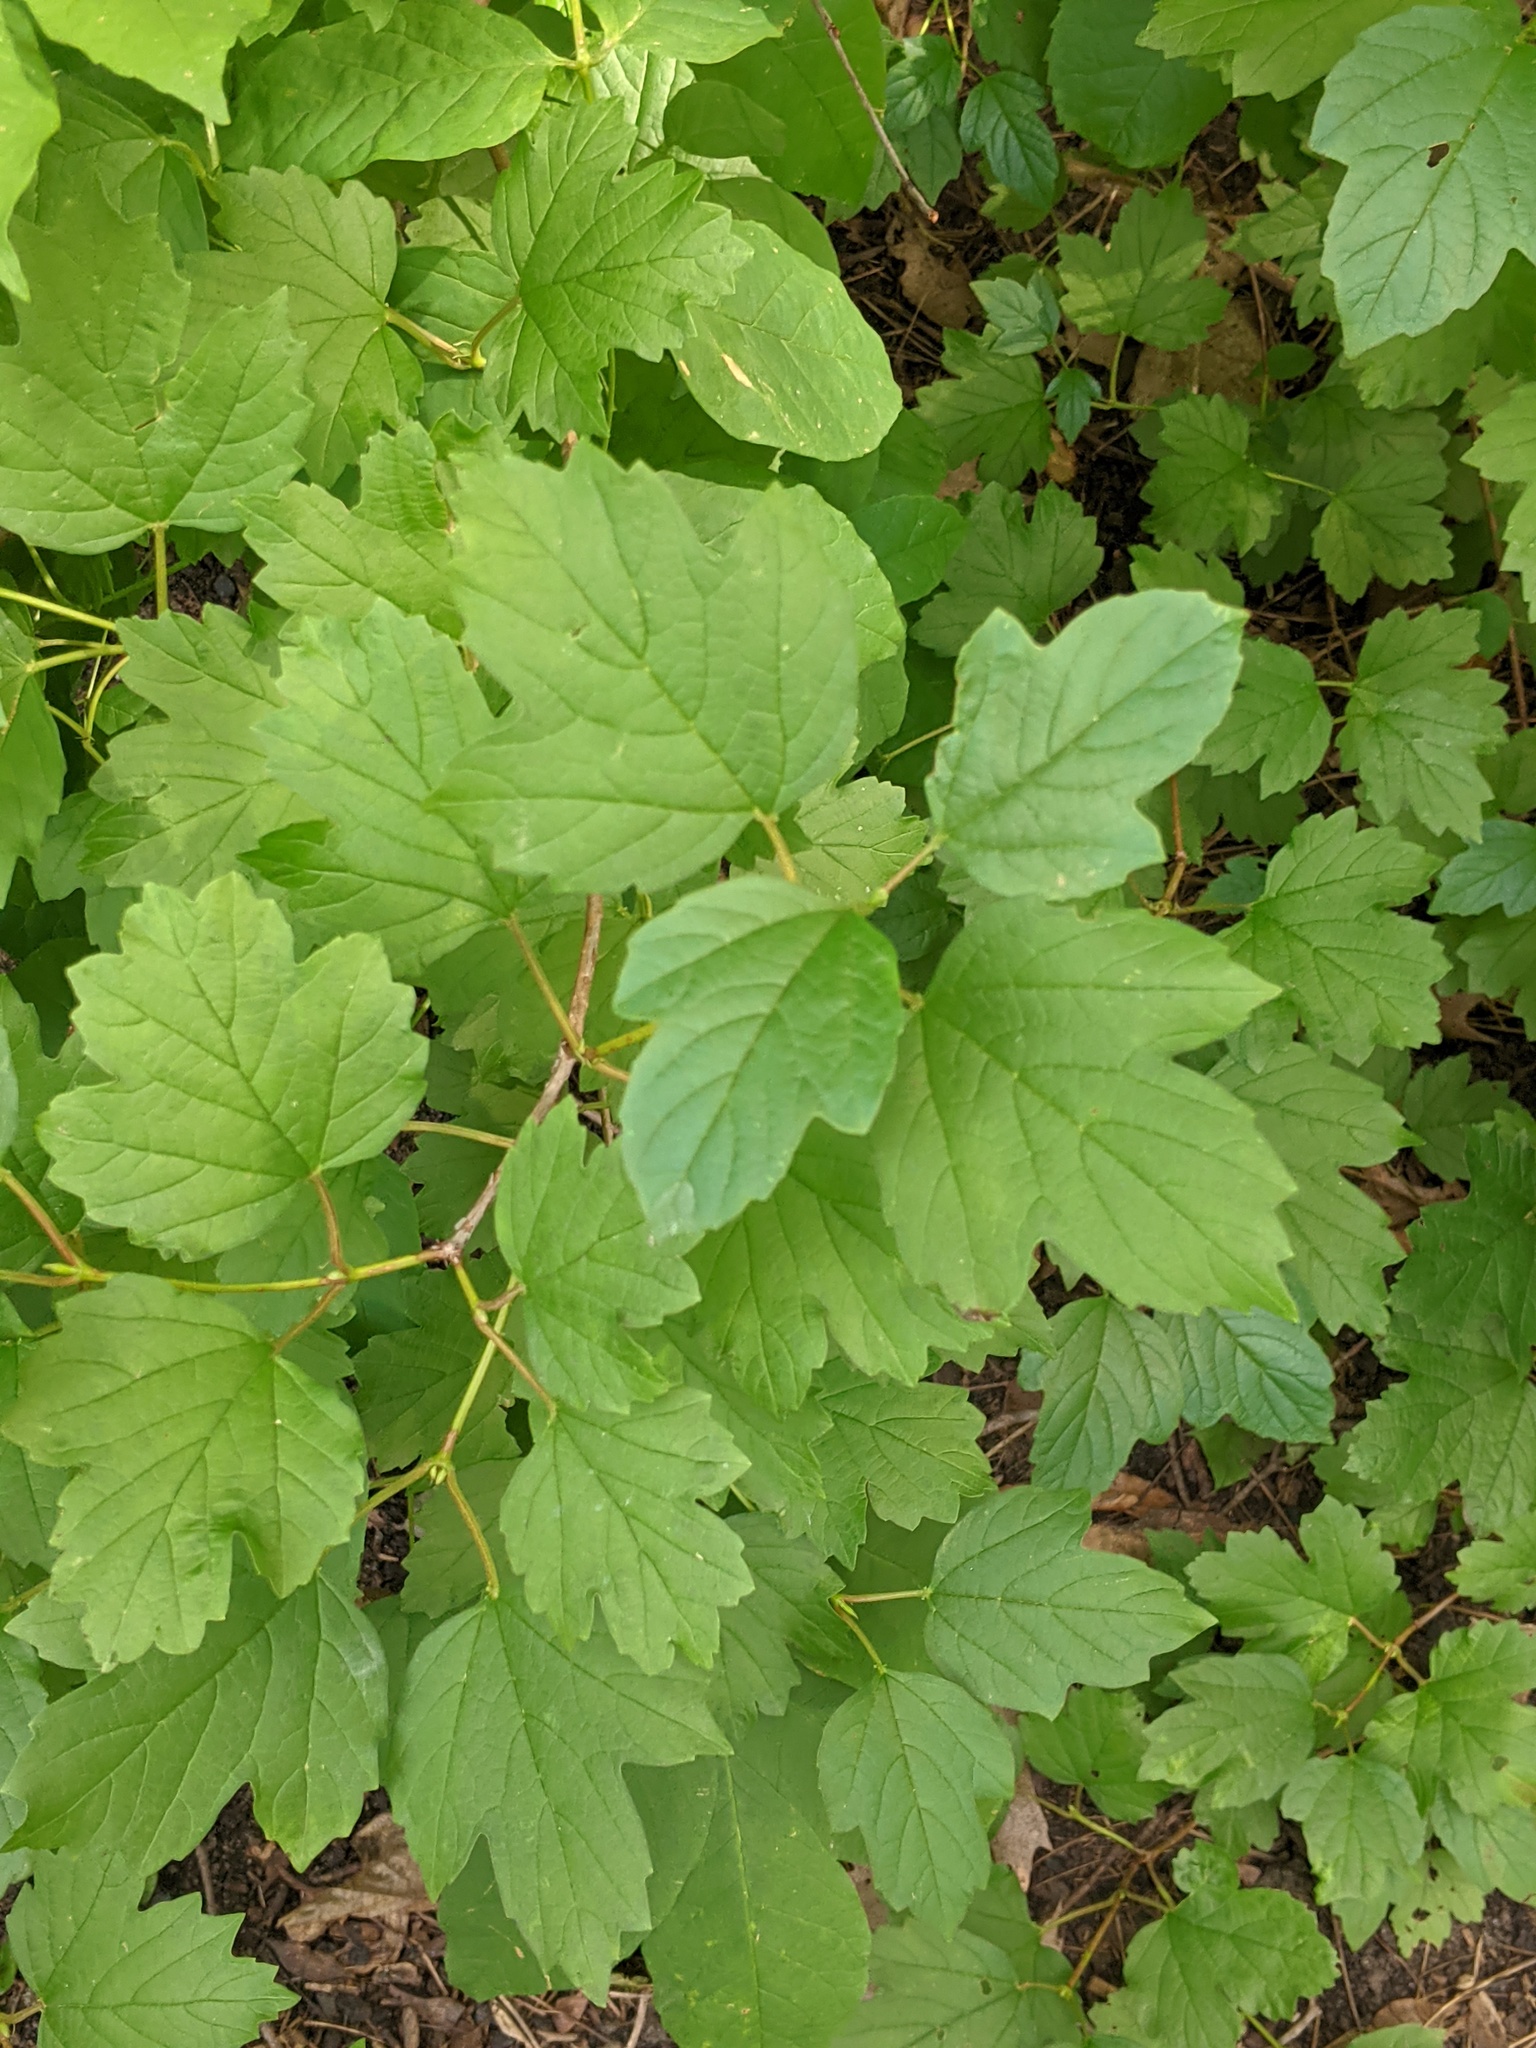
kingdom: Plantae
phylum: Tracheophyta
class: Magnoliopsida
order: Dipsacales
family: Viburnaceae
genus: Viburnum
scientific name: Viburnum opulus
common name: Guelder-rose
